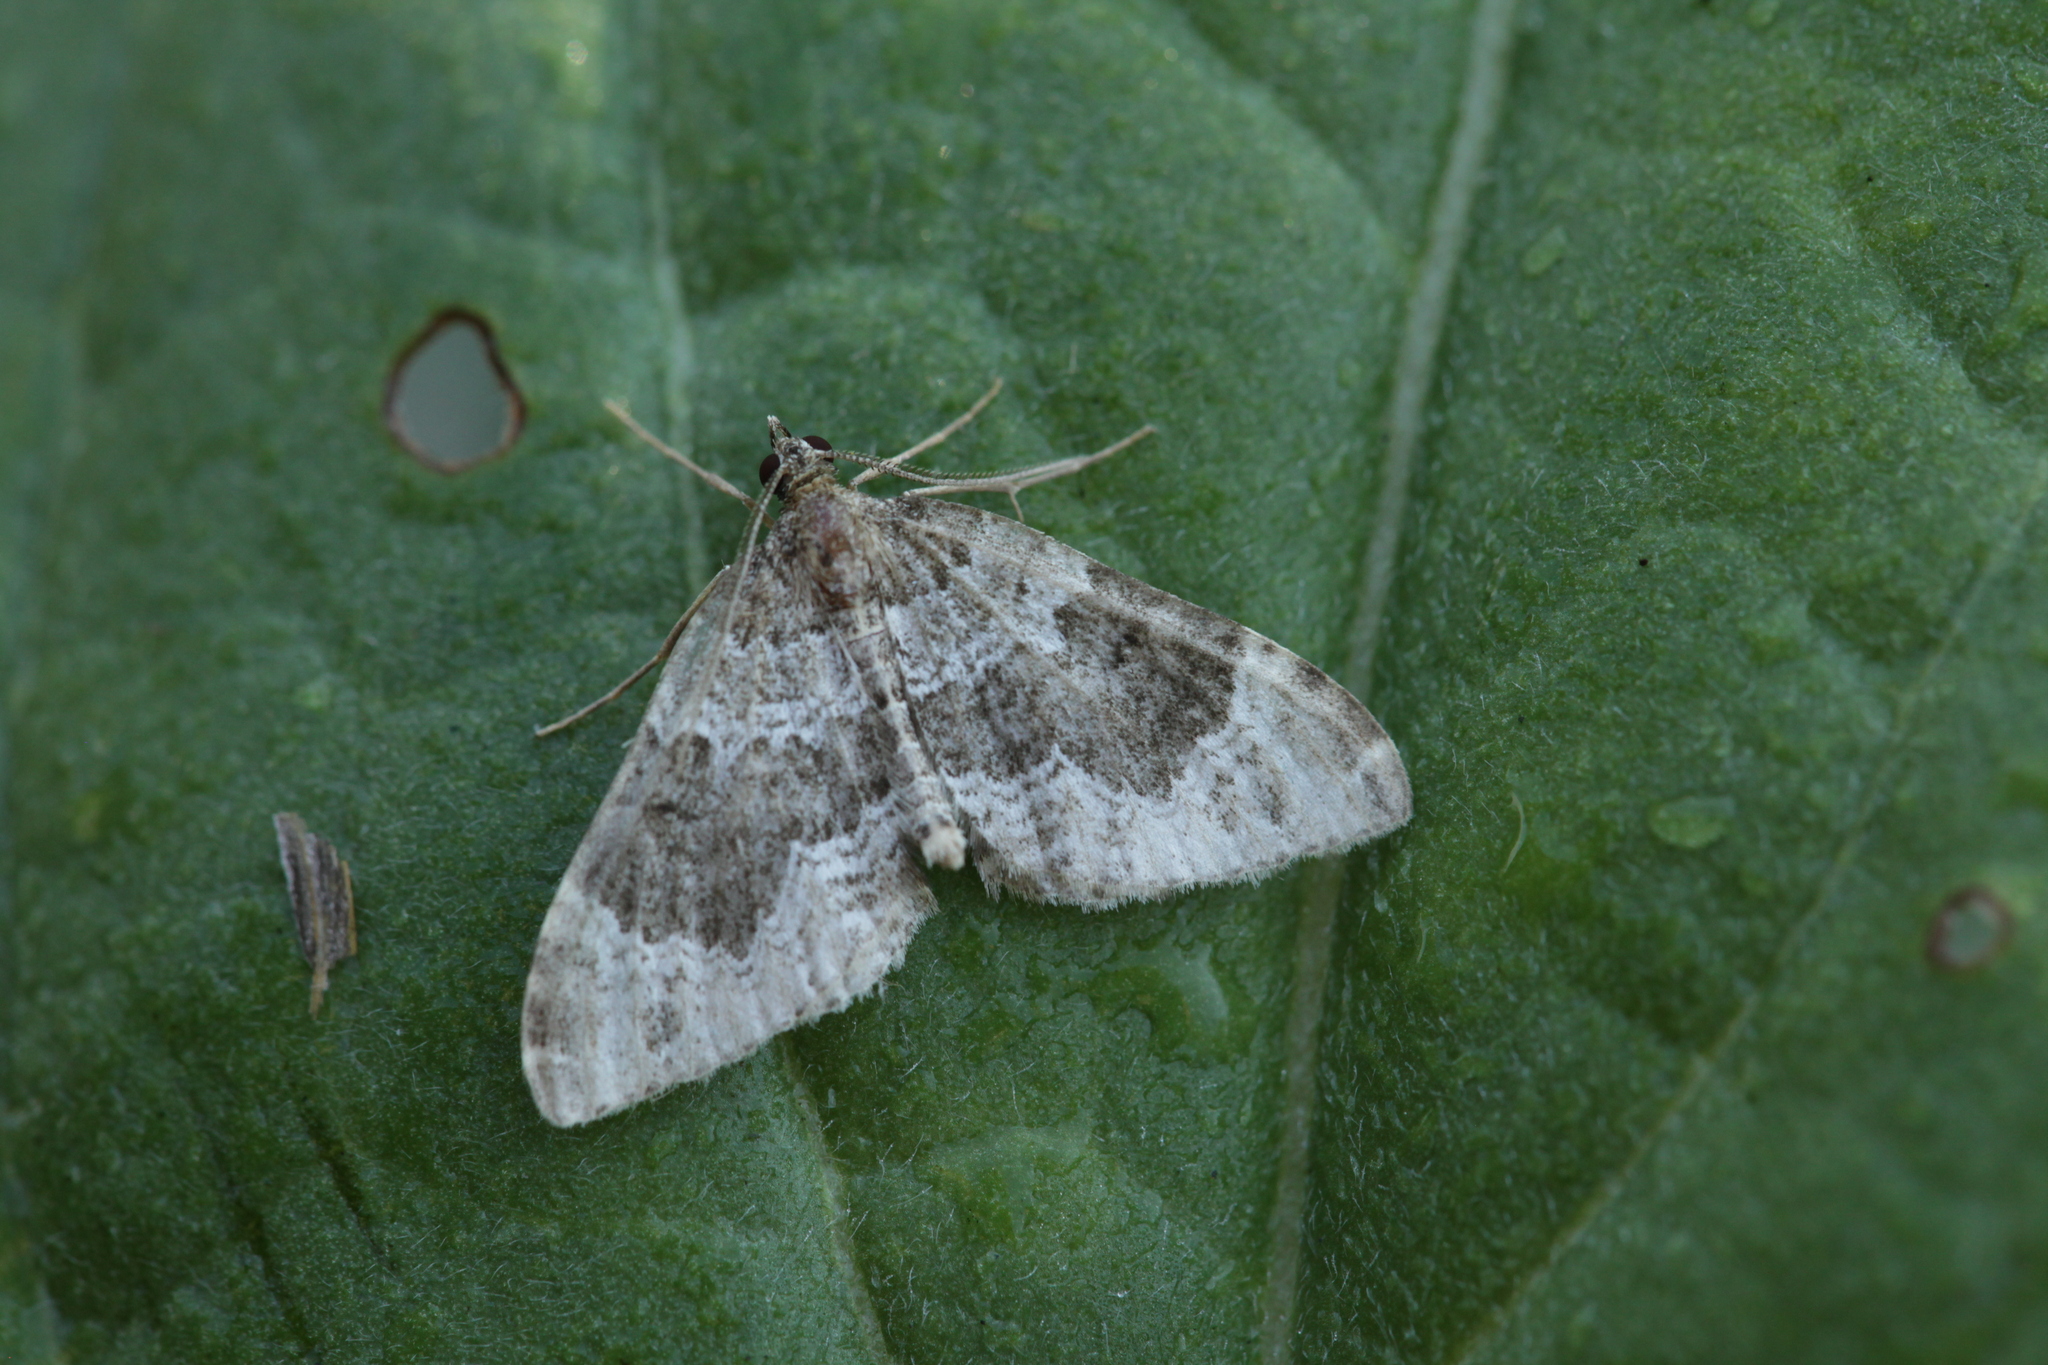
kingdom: Animalia
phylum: Arthropoda
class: Insecta
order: Lepidoptera
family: Geometridae
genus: Lampropteryx
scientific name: Lampropteryx otregiata
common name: Devon carpet
